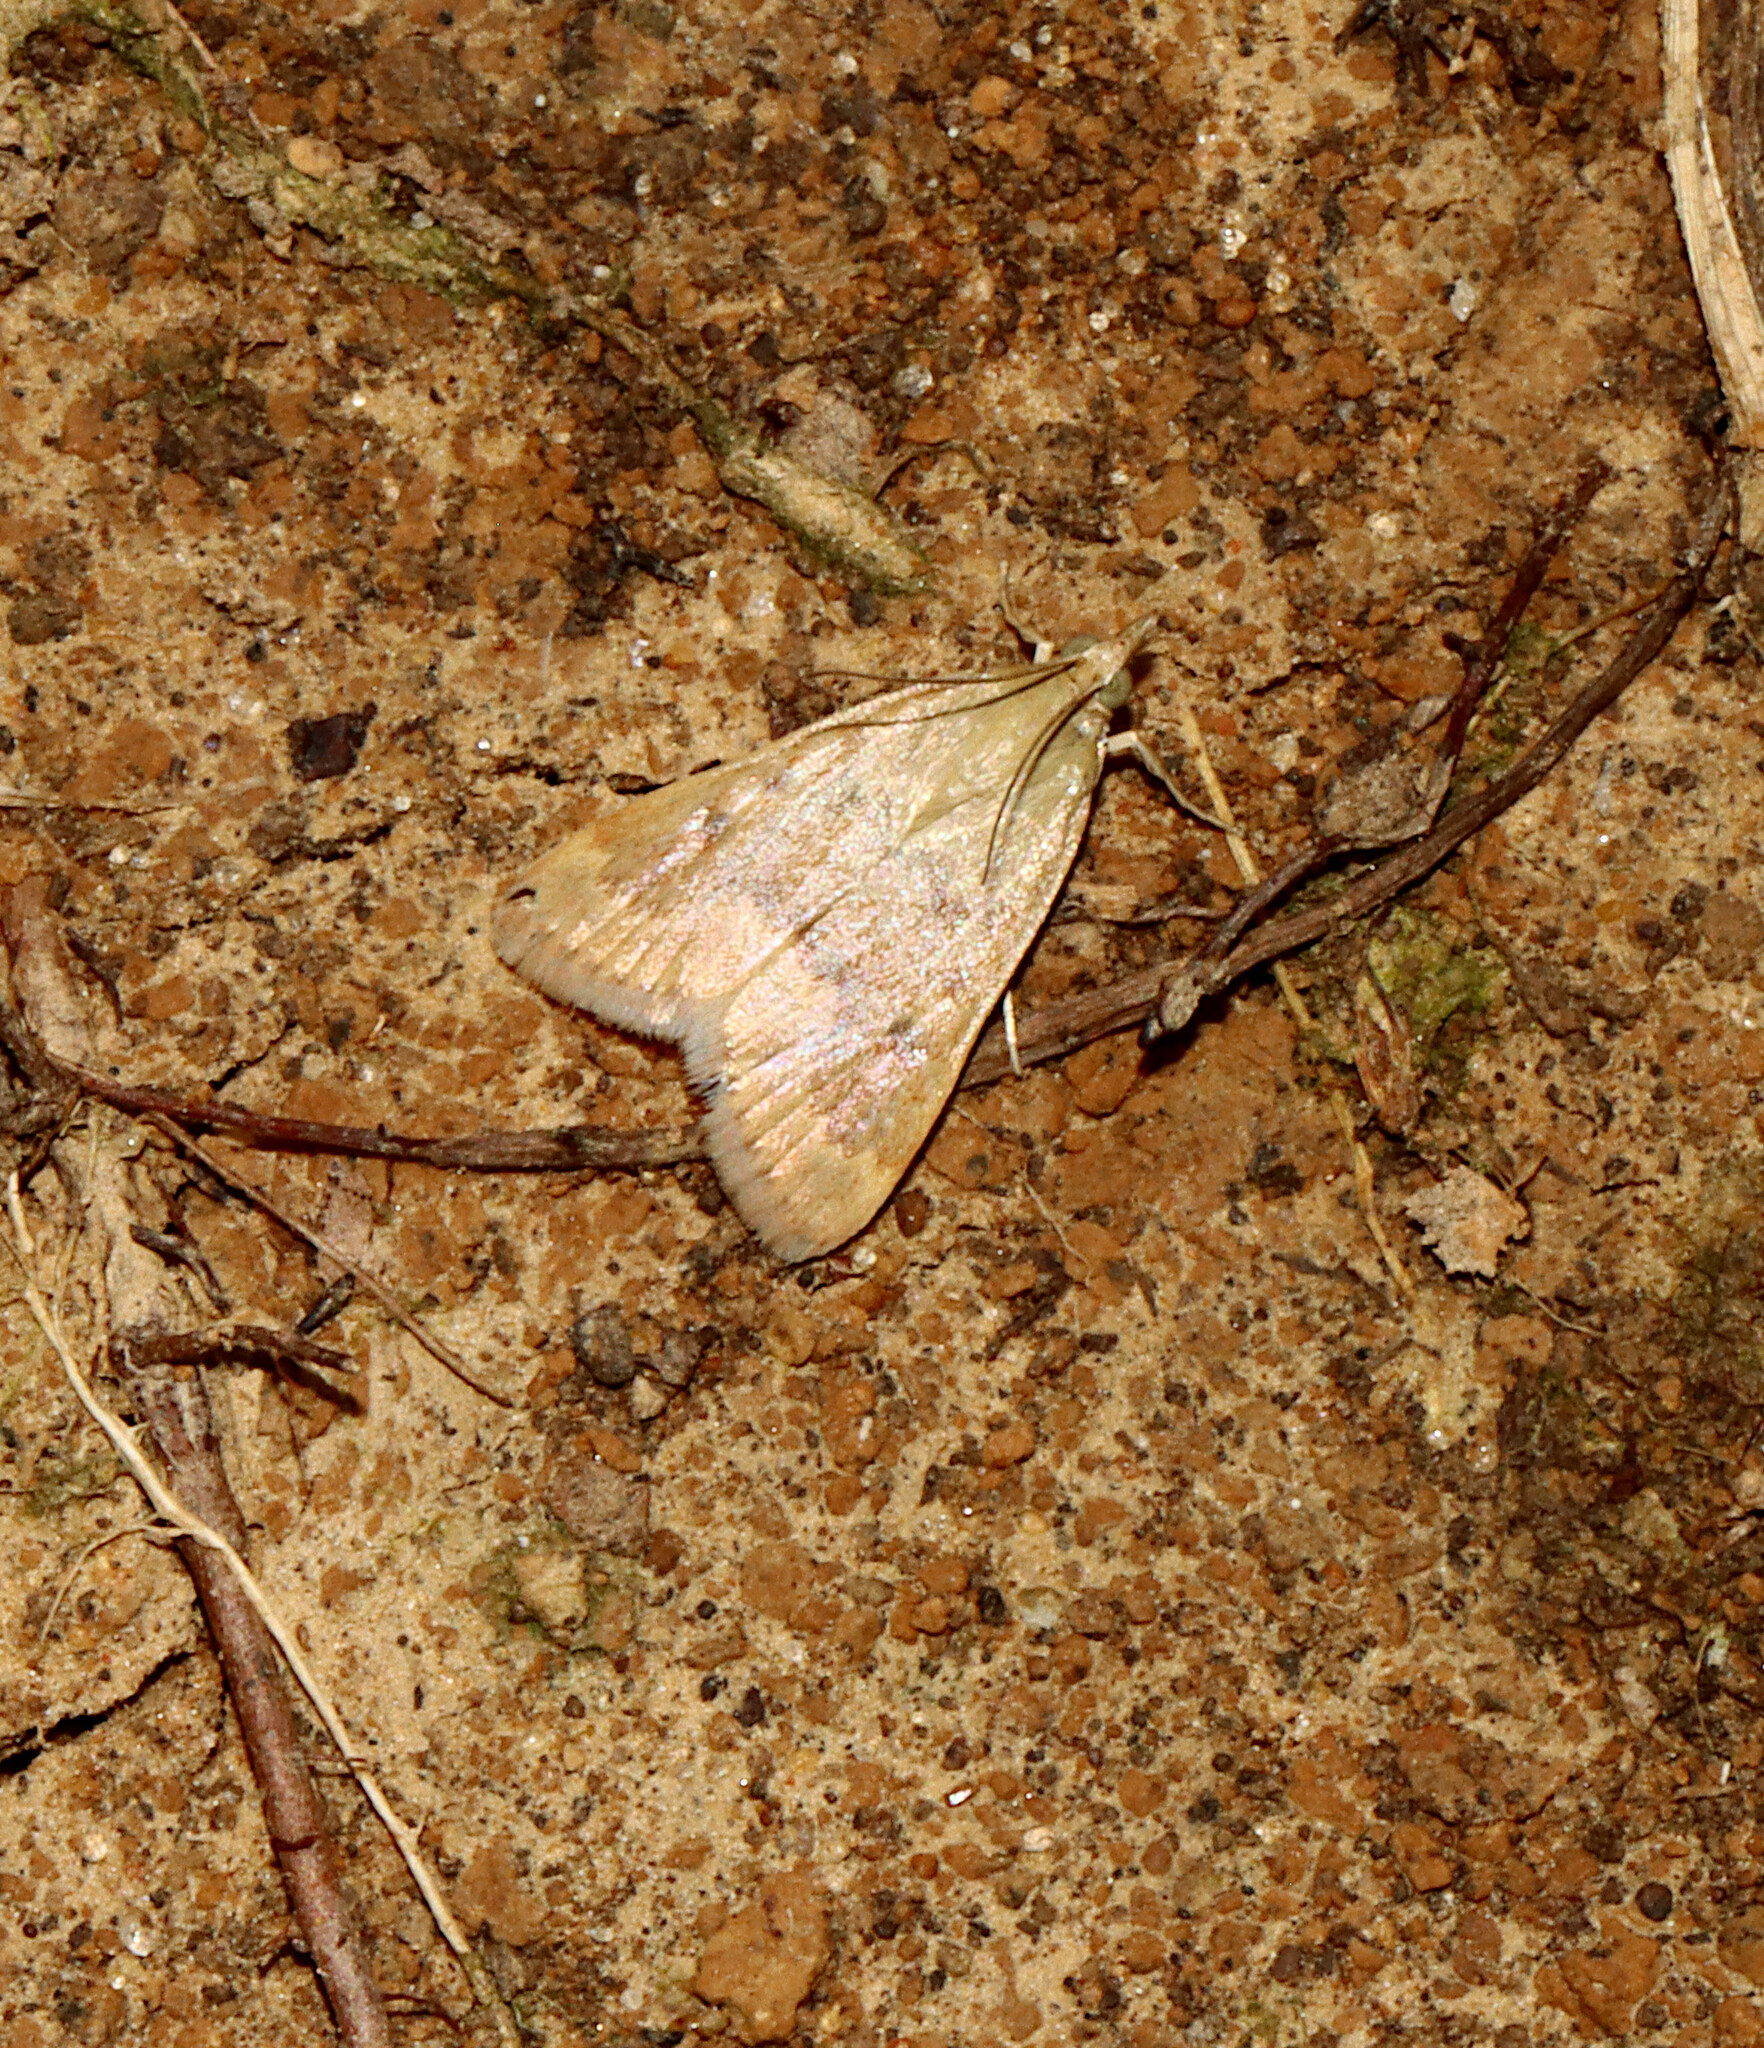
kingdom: Animalia
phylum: Arthropoda
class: Insecta
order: Lepidoptera
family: Crambidae
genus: Achyra
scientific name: Achyra rantalis
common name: Garden webworm
